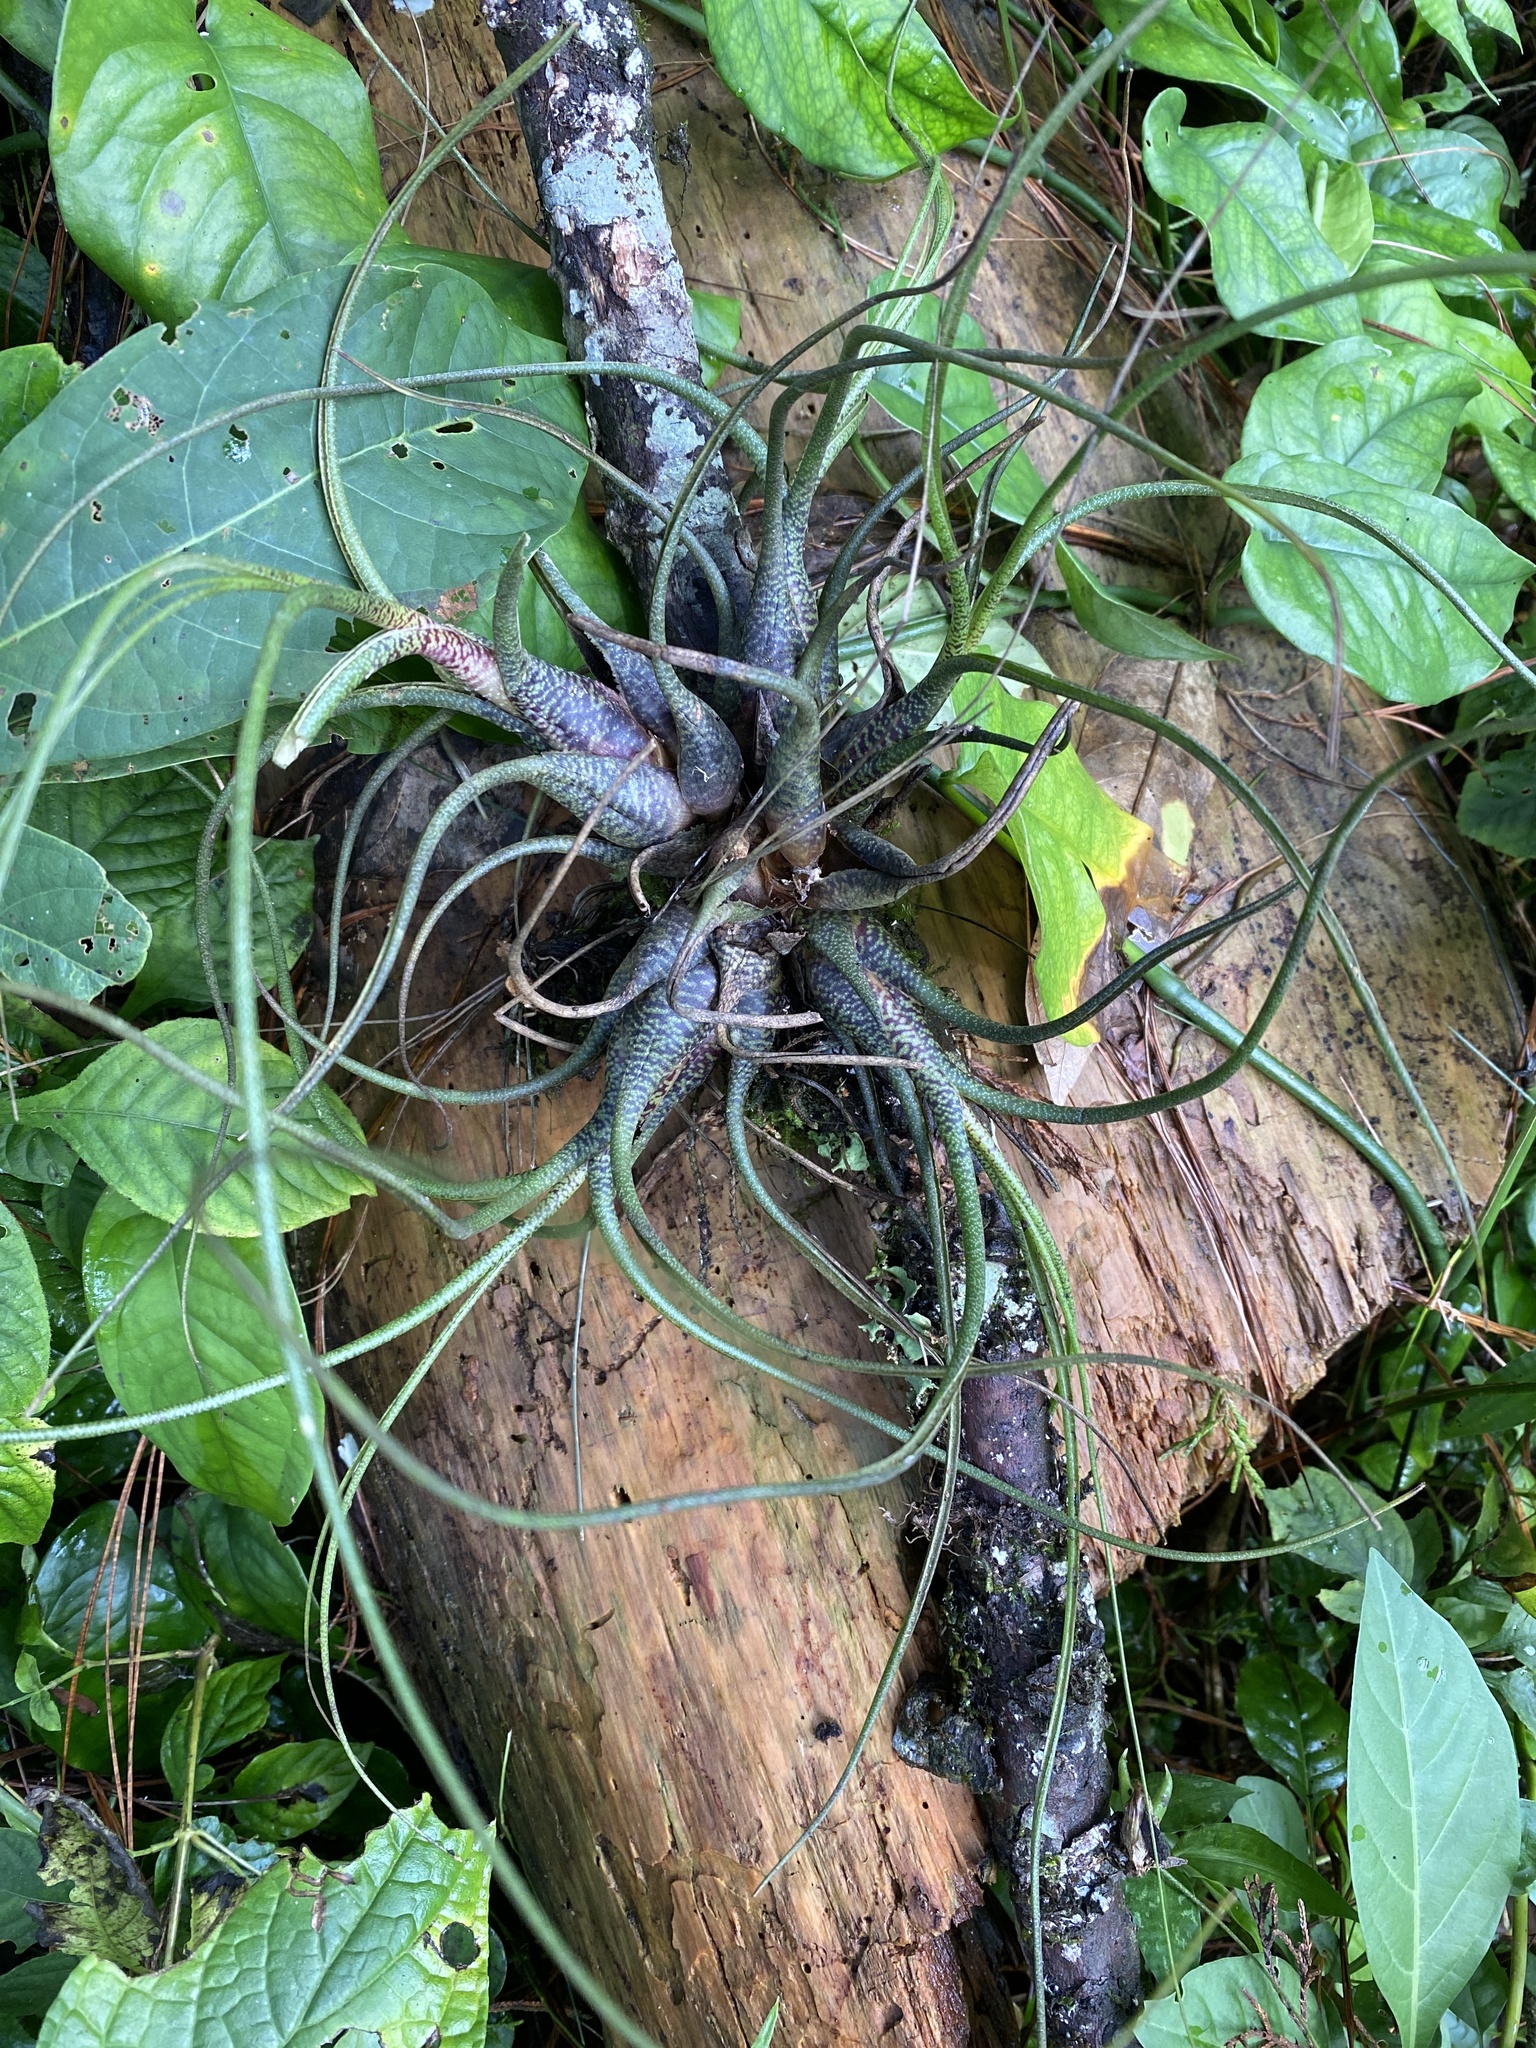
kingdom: Plantae
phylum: Tracheophyta
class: Liliopsida
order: Poales
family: Bromeliaceae
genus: Tillandsia
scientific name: Tillandsia butzii
